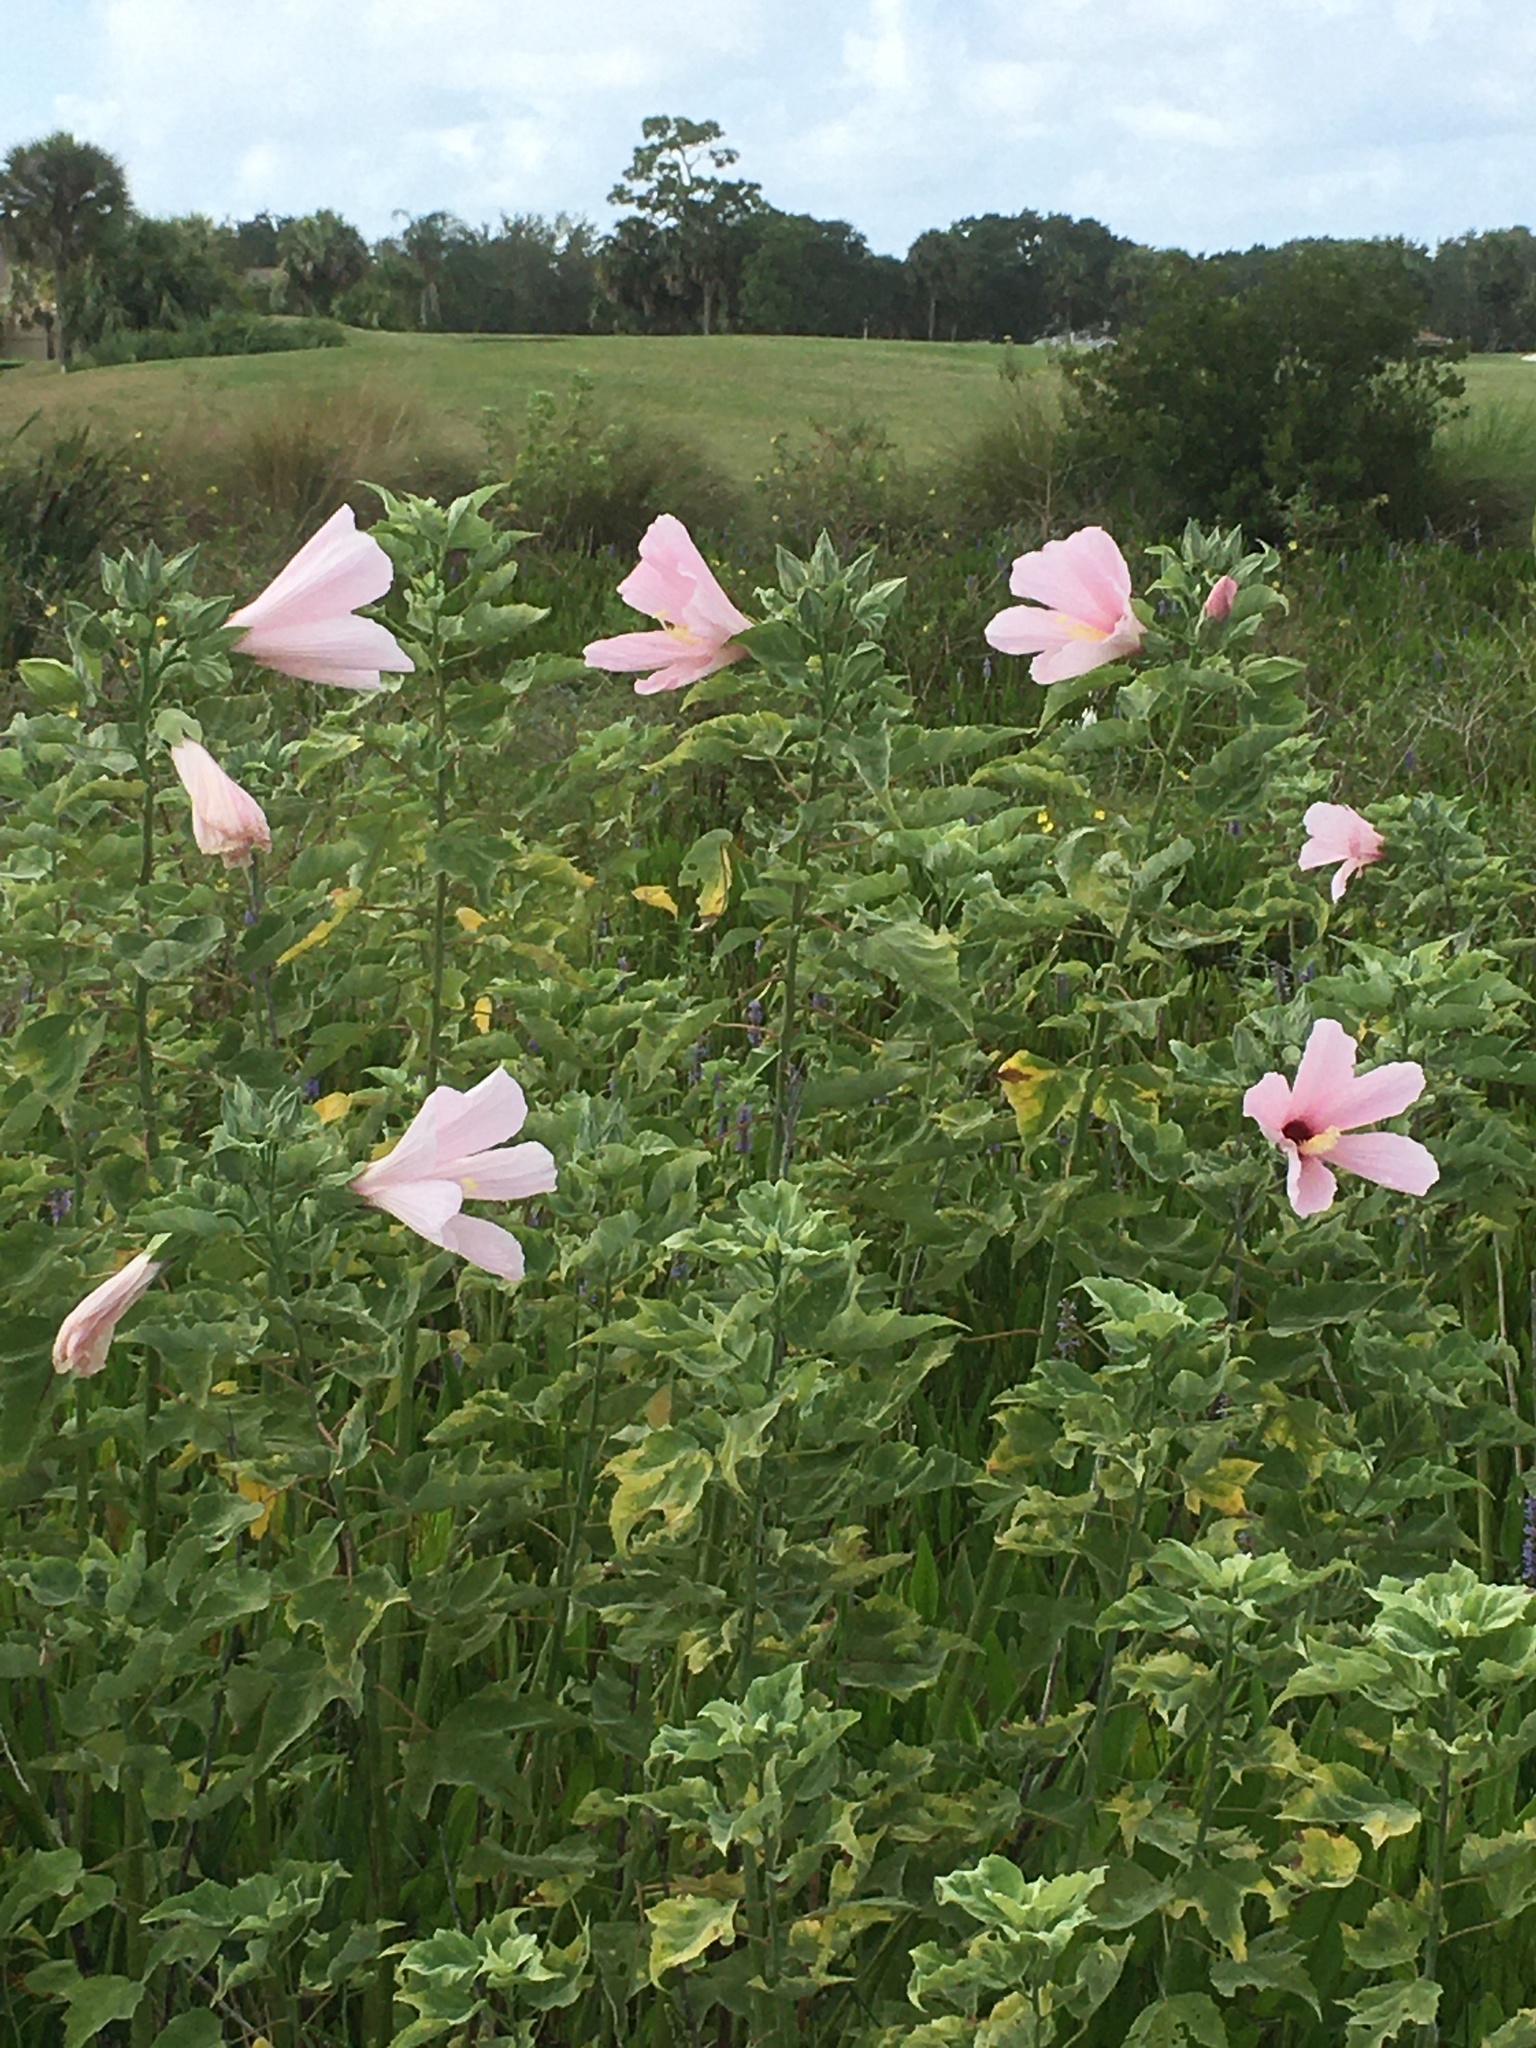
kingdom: Plantae
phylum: Tracheophyta
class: Magnoliopsida
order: Malvales
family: Malvaceae
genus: Hibiscus
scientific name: Hibiscus grandiflorus
